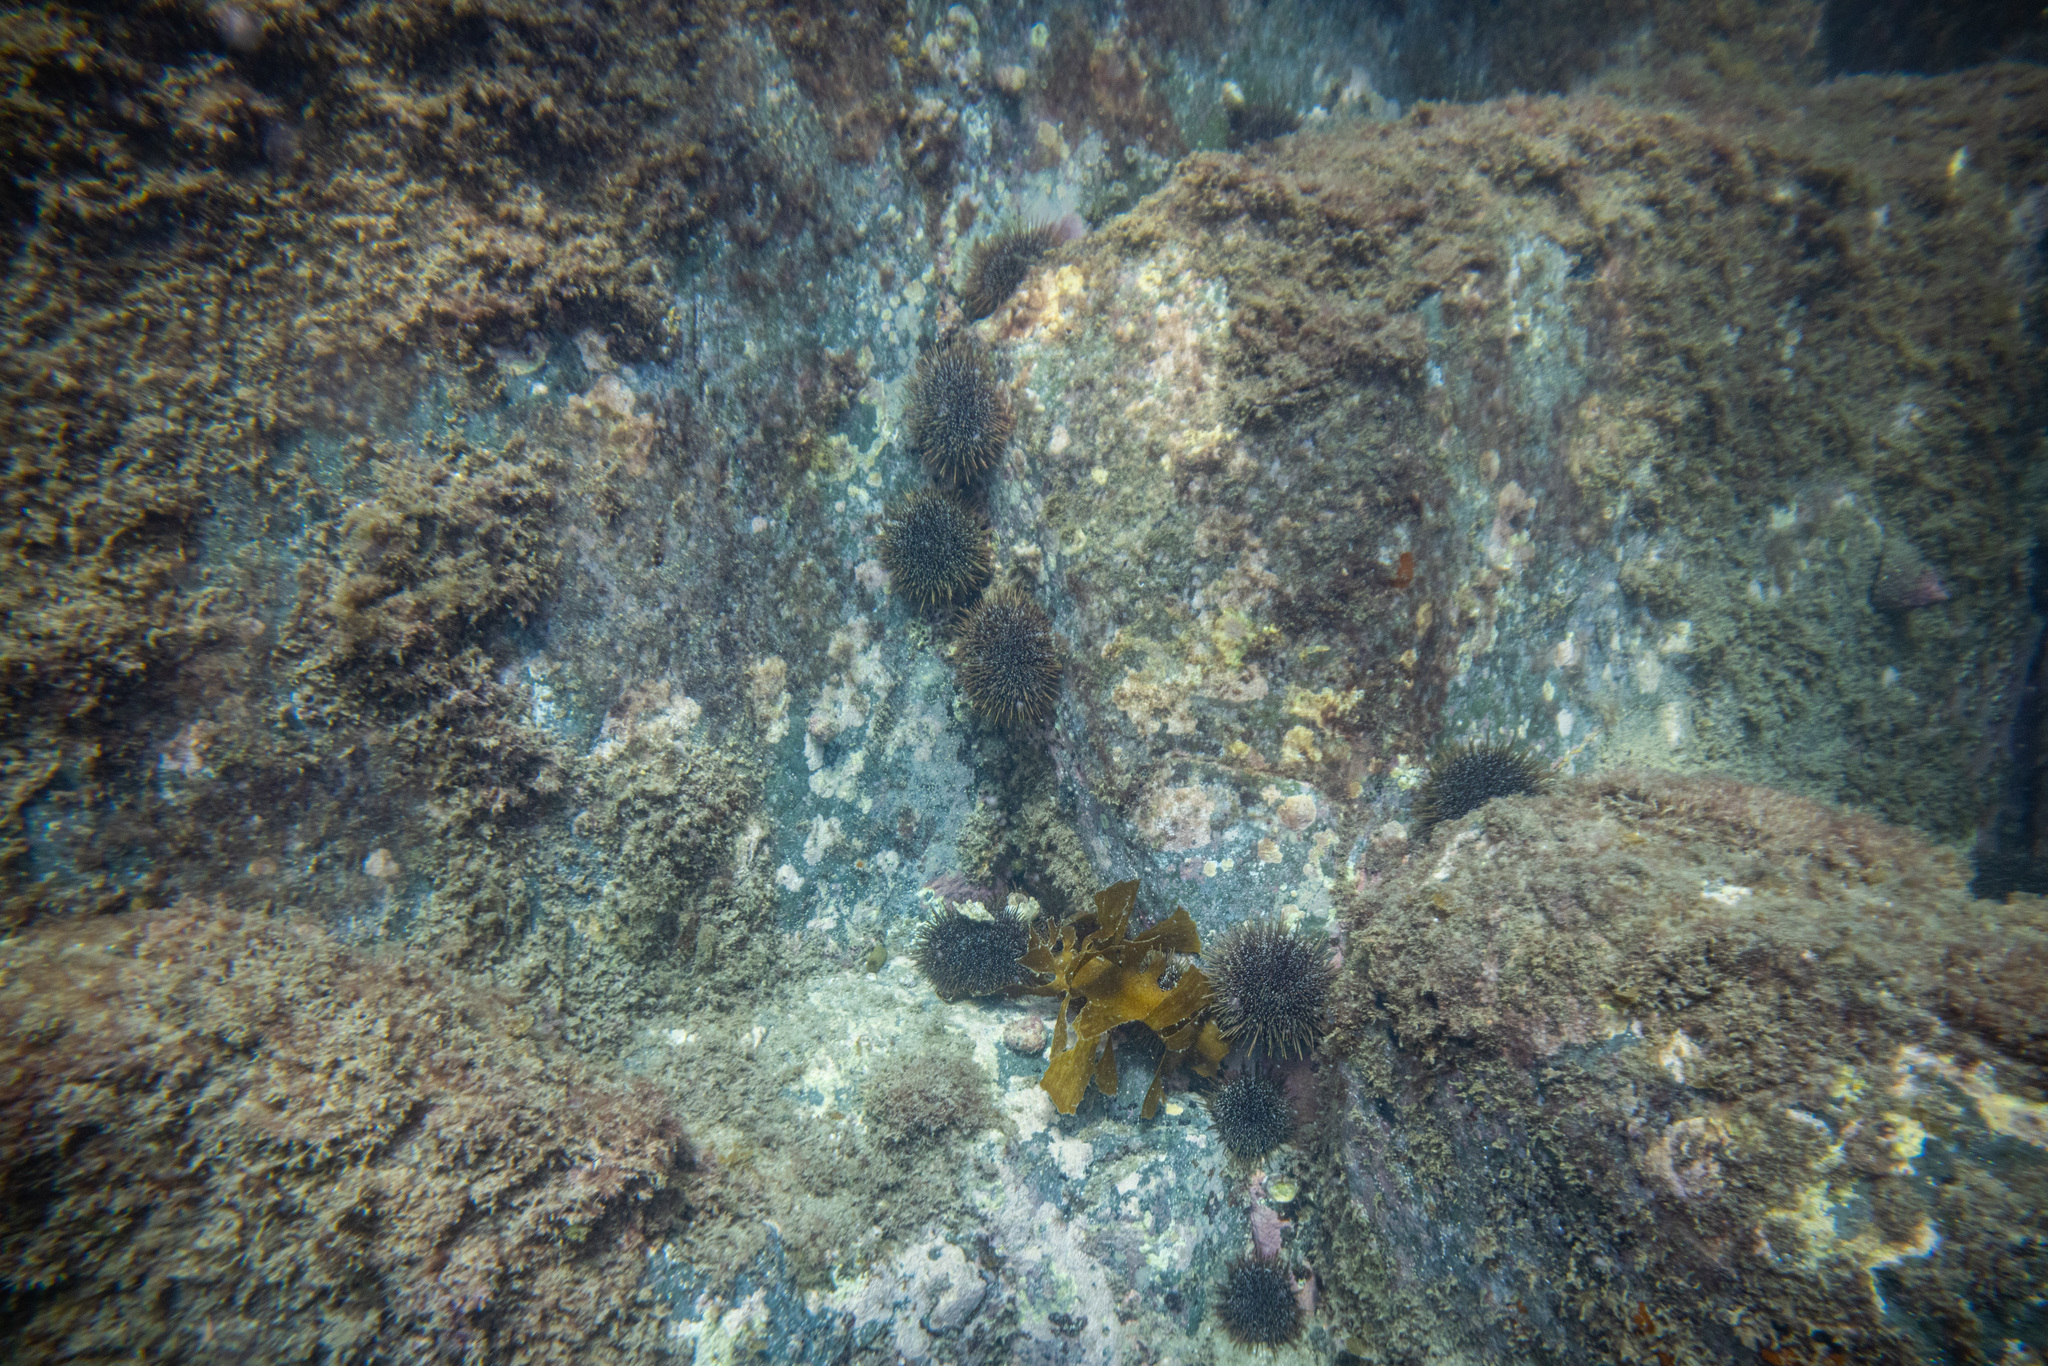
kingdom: Animalia
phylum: Echinodermata
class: Echinoidea
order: Camarodonta
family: Echinometridae
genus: Evechinus
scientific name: Evechinus chloroticus
